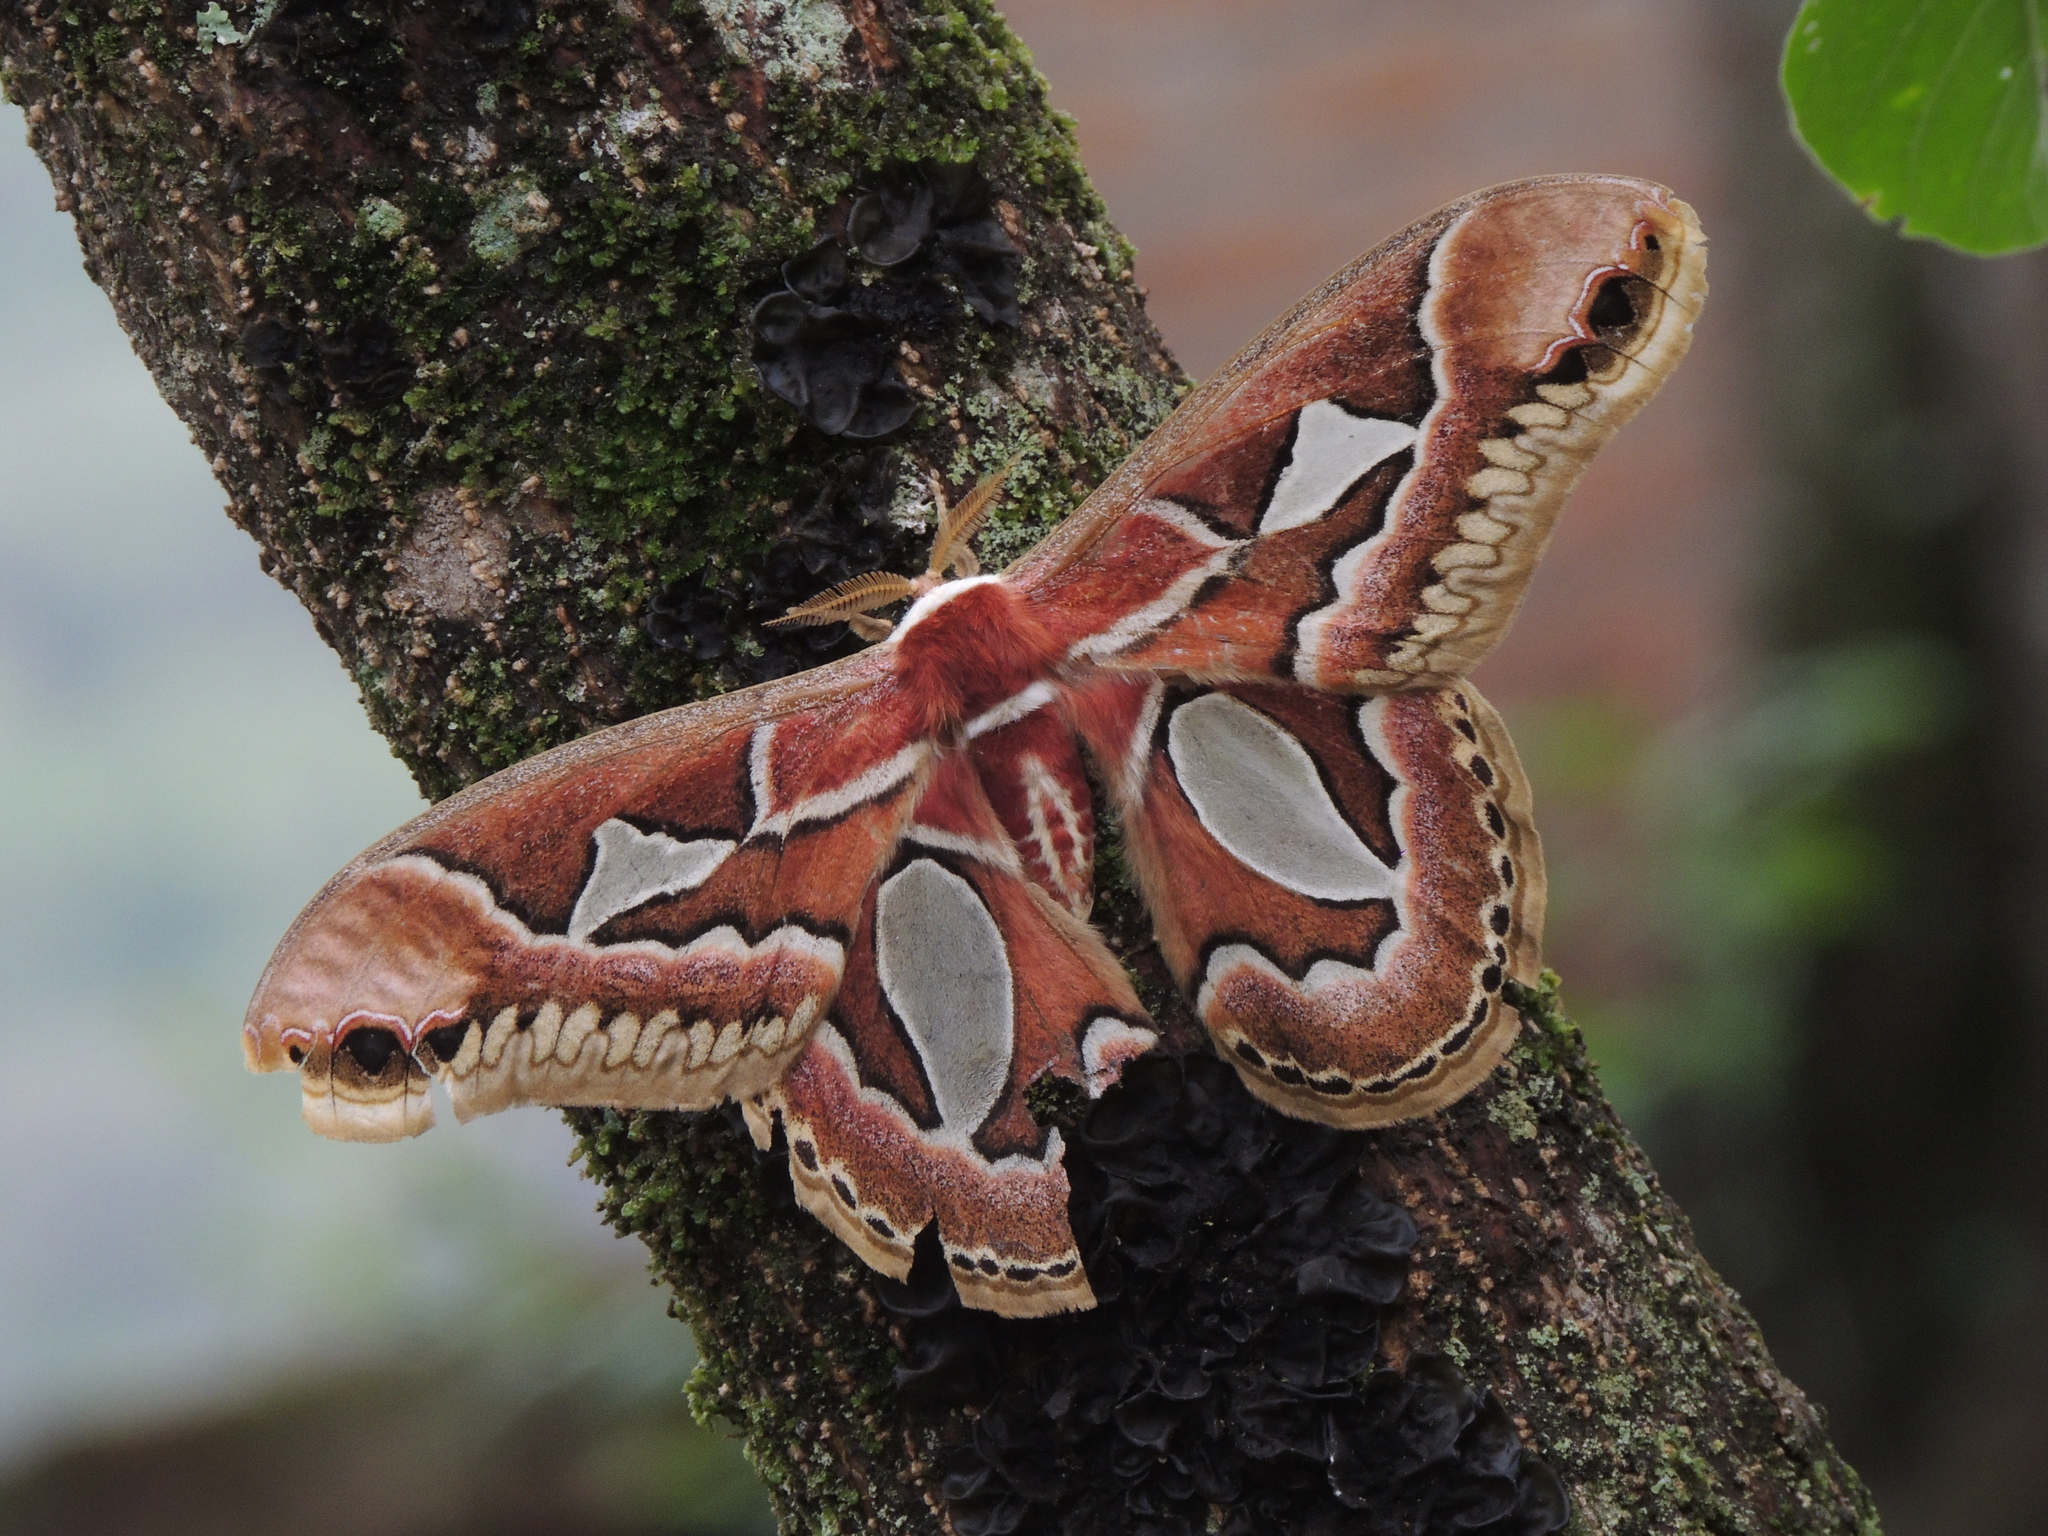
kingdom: Animalia
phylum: Arthropoda
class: Insecta
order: Lepidoptera
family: Saturniidae
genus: Rothschildia
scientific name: Rothschildia jacobaeae
